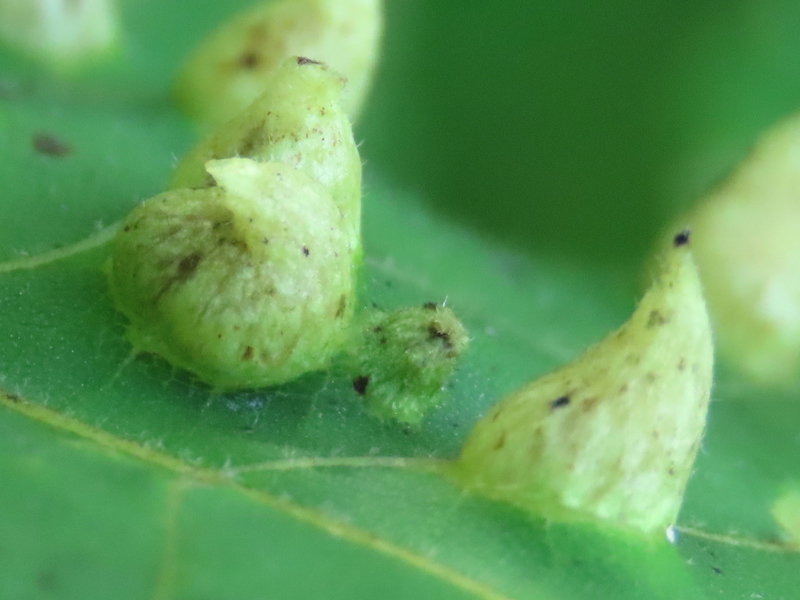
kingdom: Animalia
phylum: Arthropoda
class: Insecta
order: Hemiptera
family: Phylloxeridae
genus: Phylloxera
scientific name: Phylloxera caryaefallax
